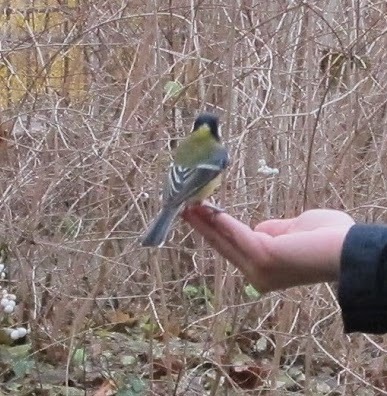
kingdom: Animalia
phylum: Chordata
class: Aves
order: Passeriformes
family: Paridae
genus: Parus
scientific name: Parus major
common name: Great tit
